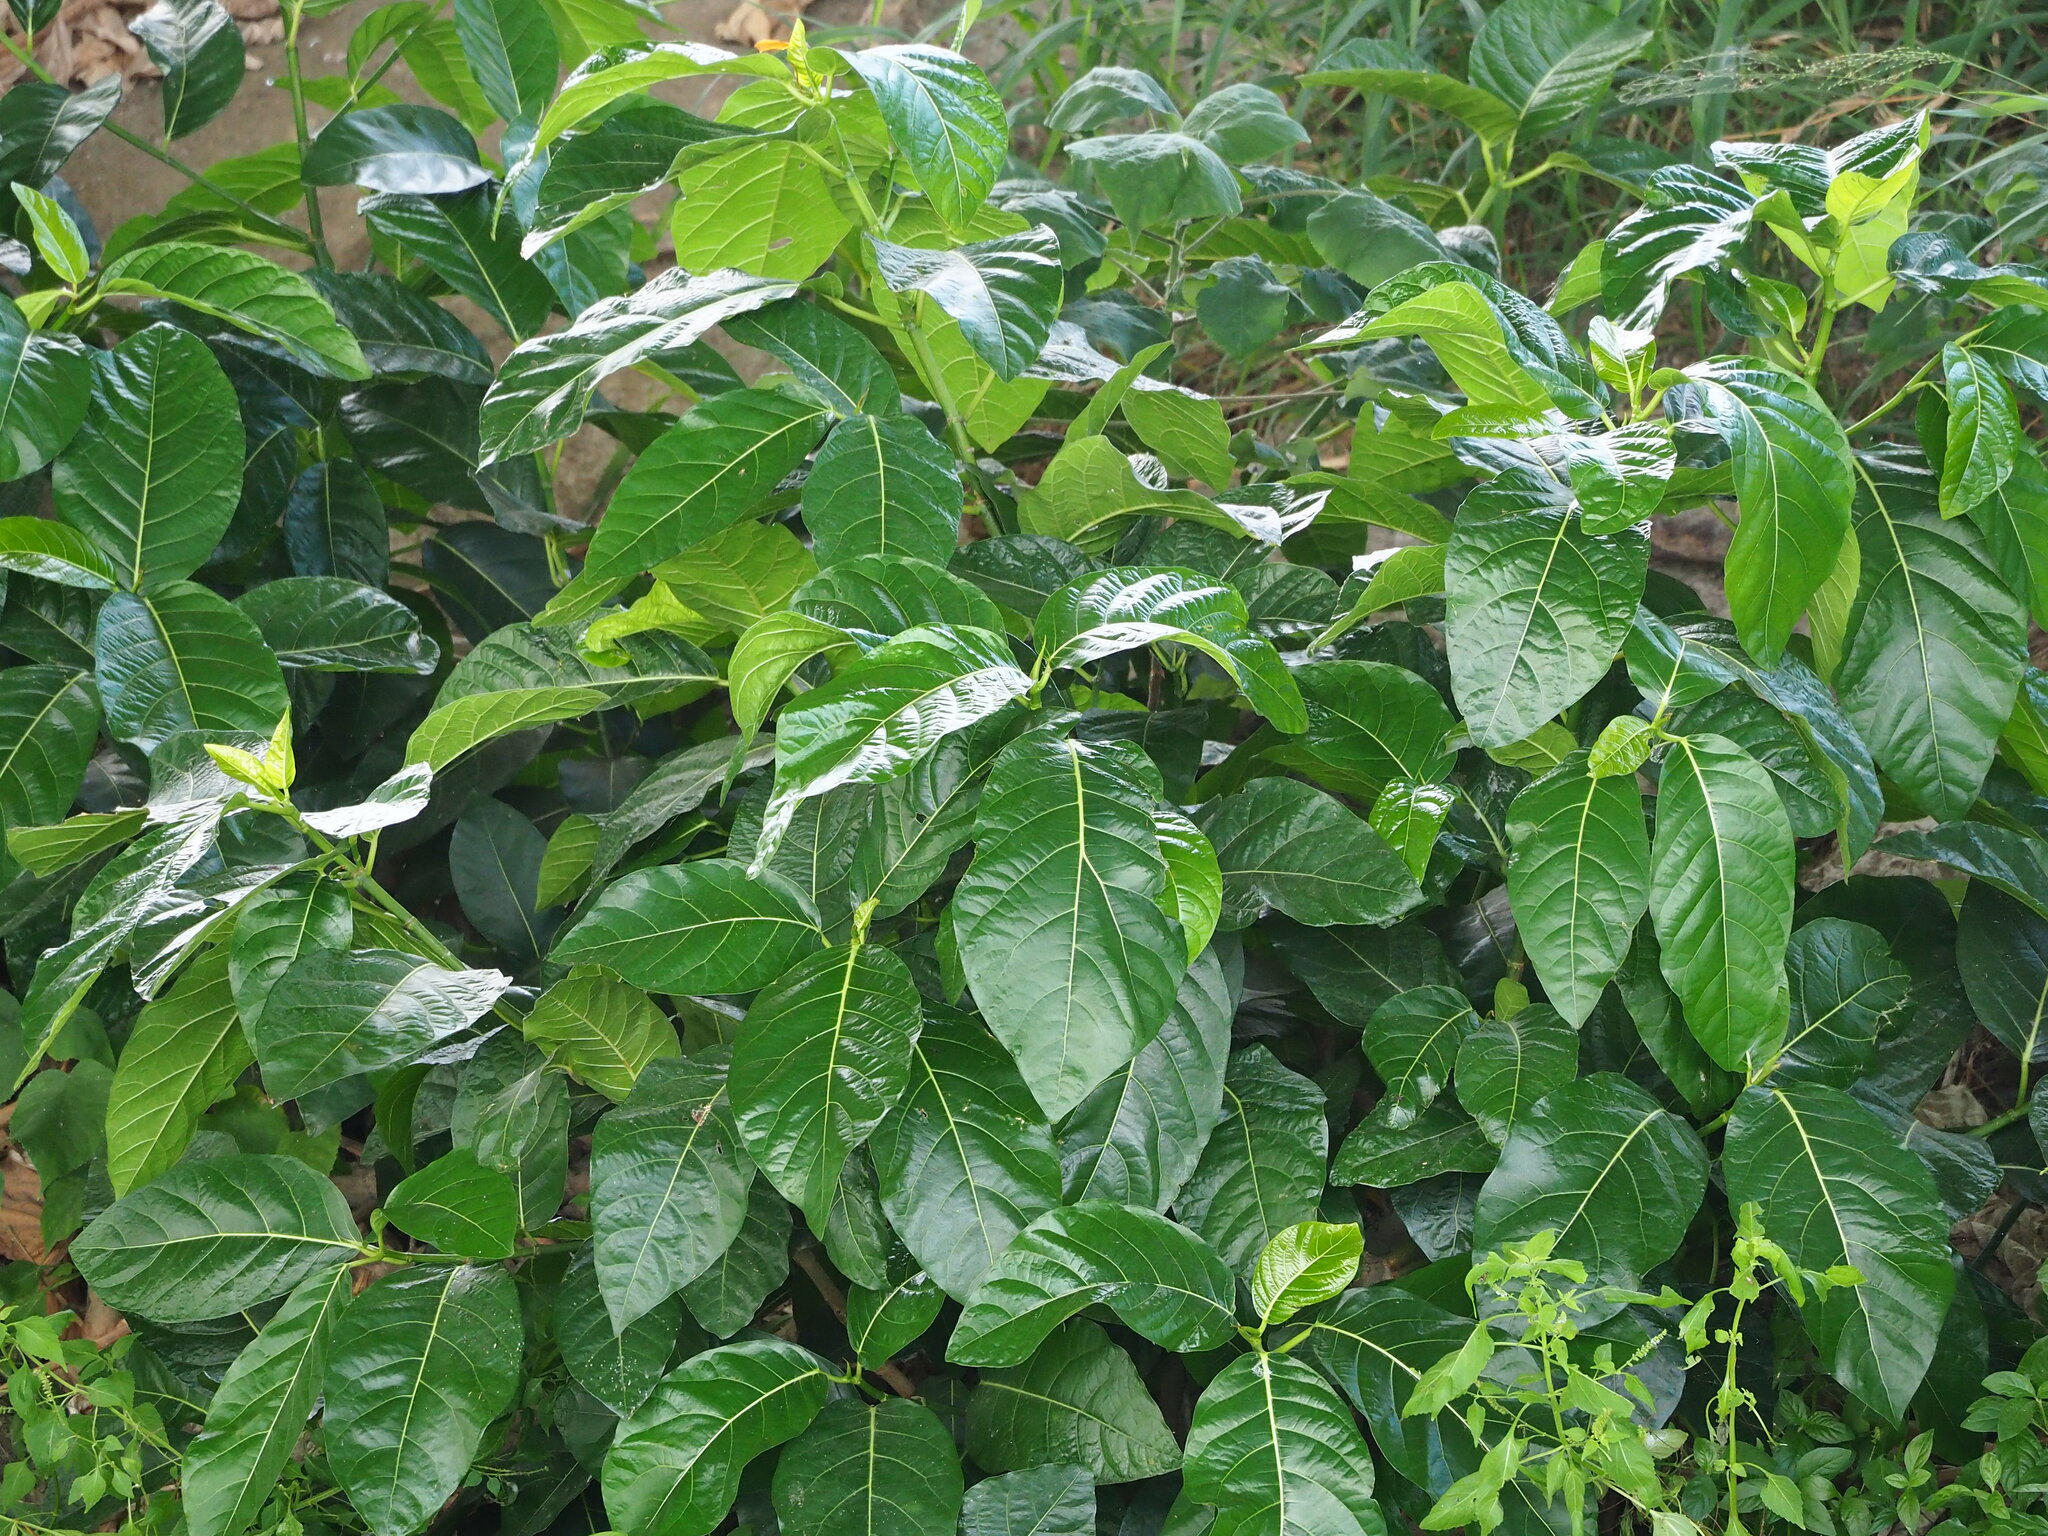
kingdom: Plantae
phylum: Tracheophyta
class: Magnoliopsida
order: Rosales
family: Moraceae
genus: Ficus
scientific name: Ficus septica
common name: Septic fig
